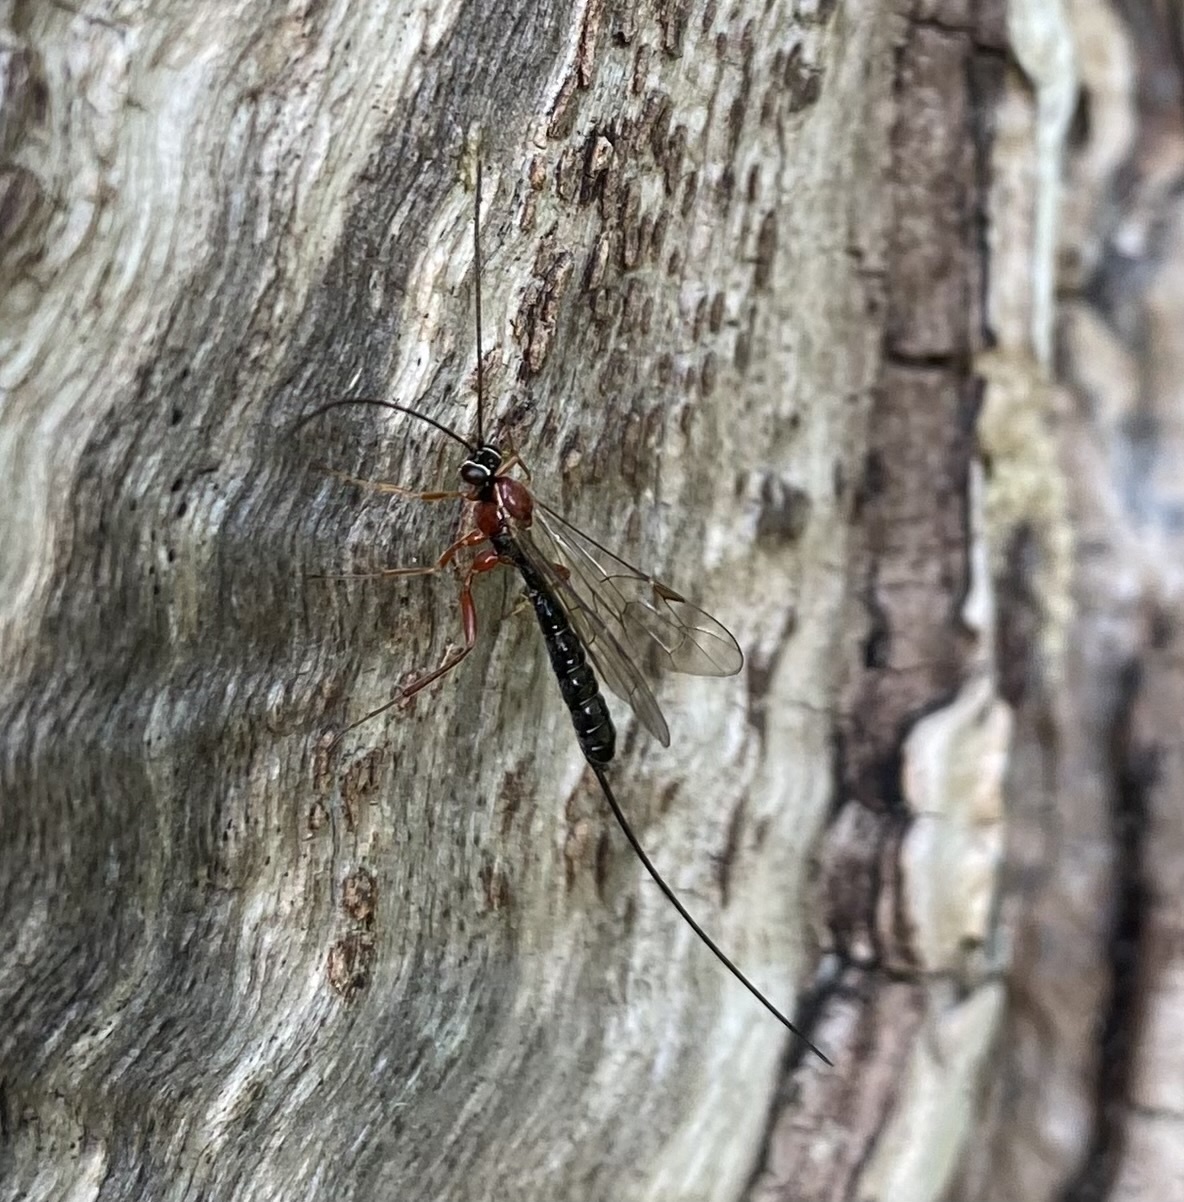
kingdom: Animalia
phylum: Arthropoda
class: Insecta
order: Hymenoptera
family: Ichneumonidae
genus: Perithous
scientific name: Perithous scurra
